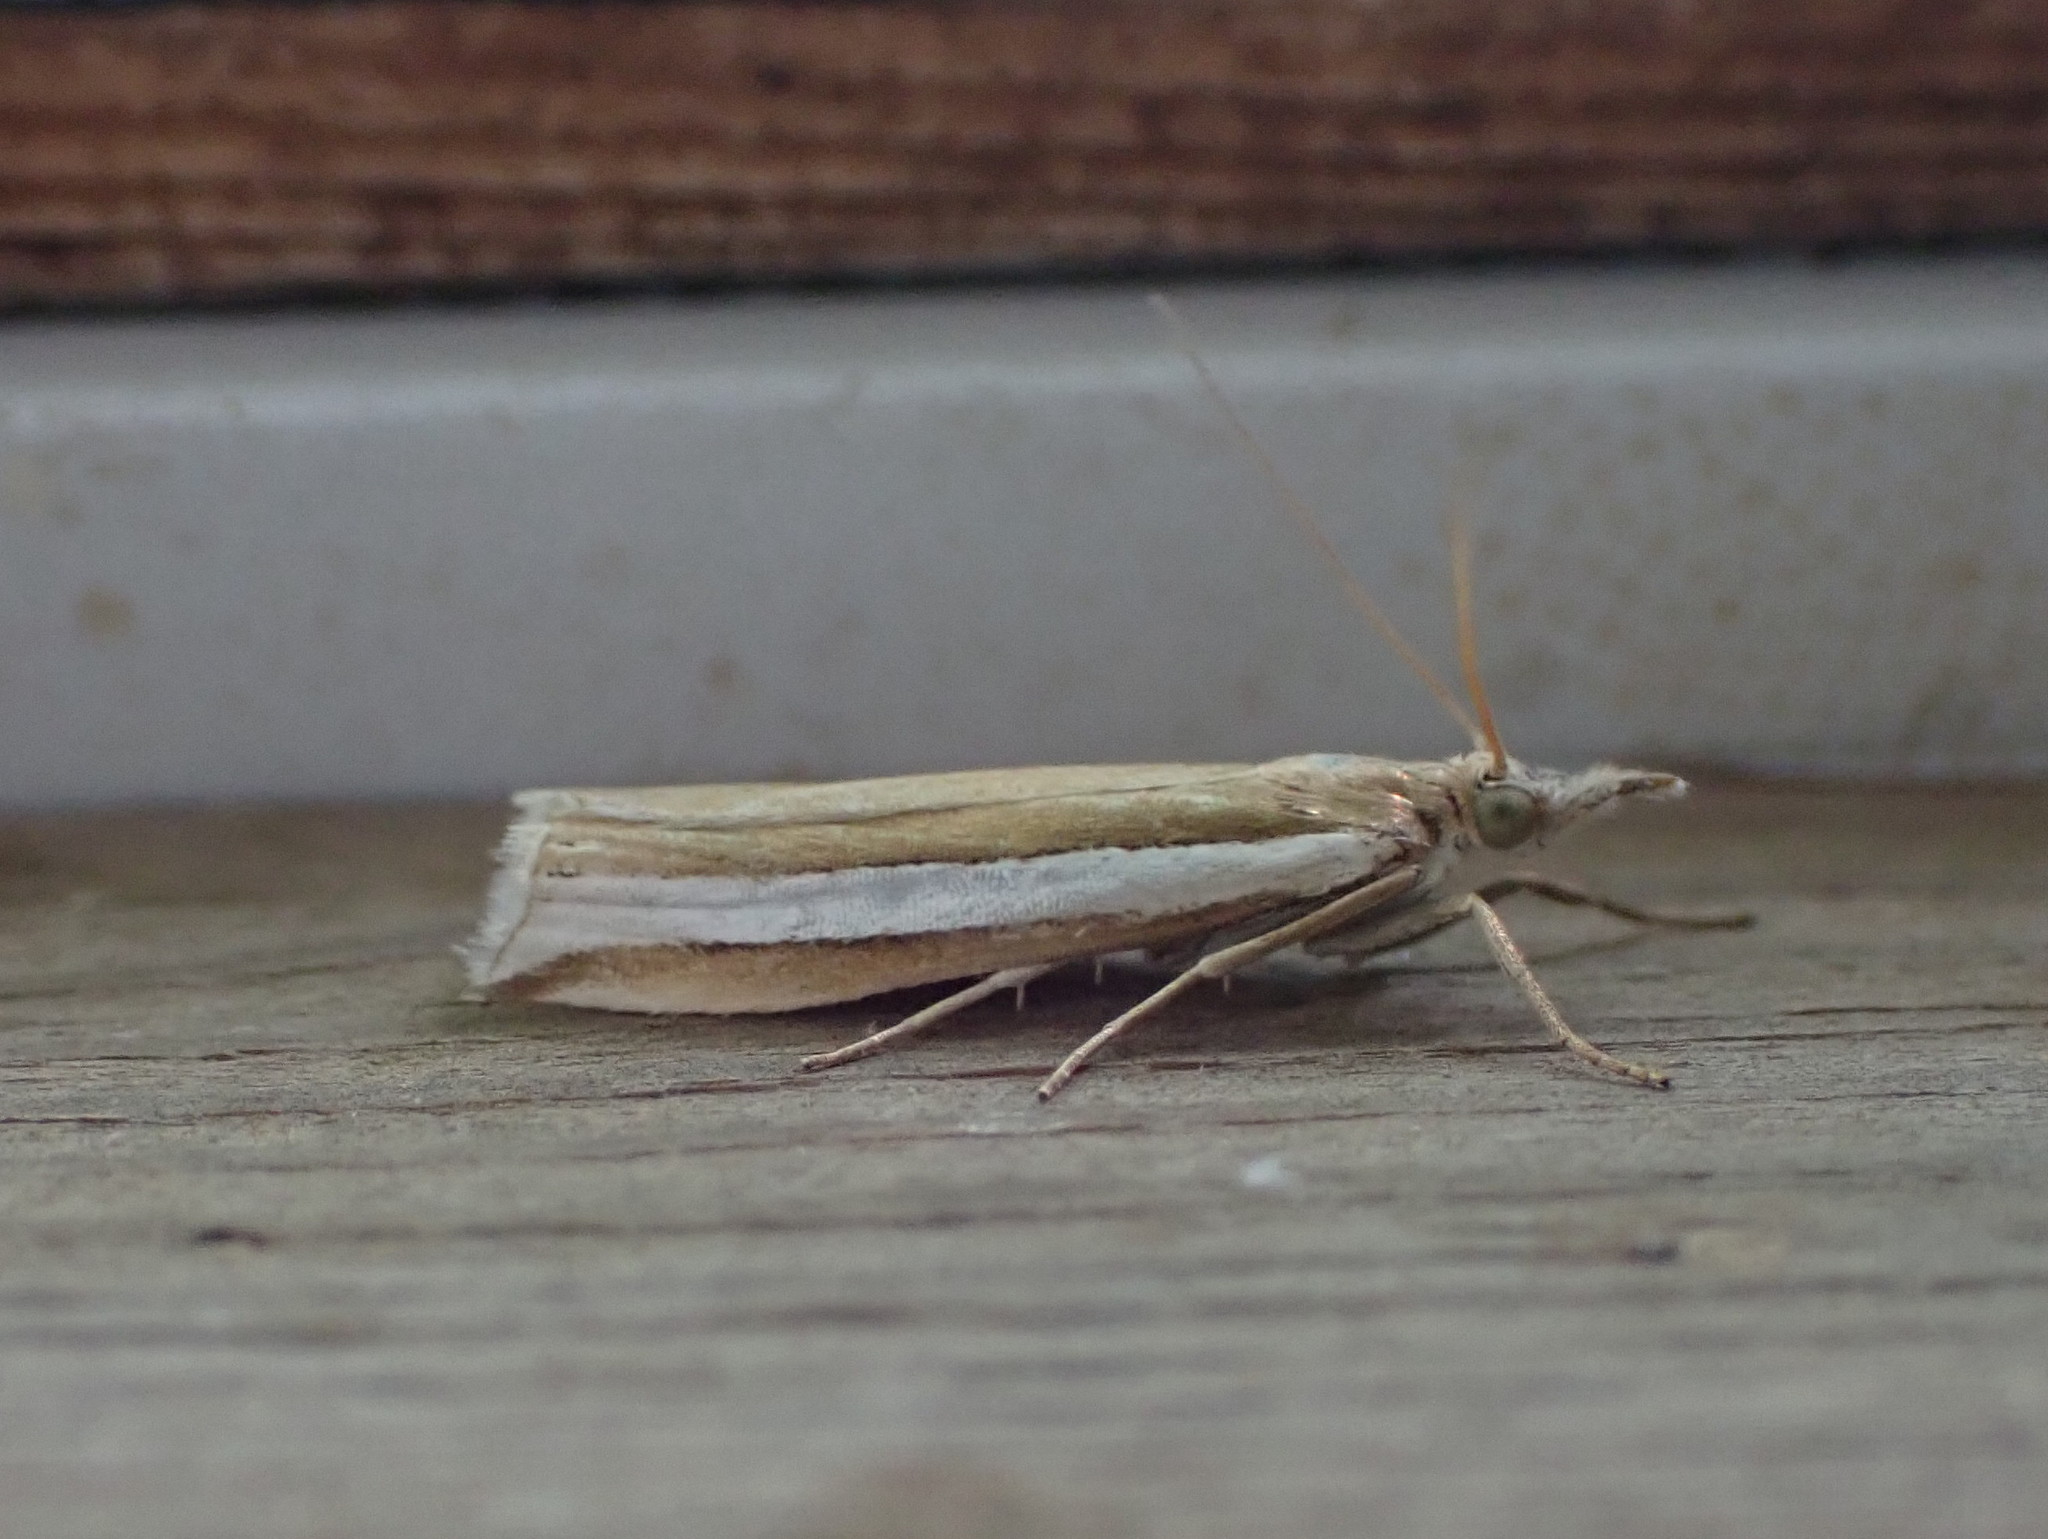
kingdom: Animalia
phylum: Arthropoda
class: Insecta
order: Lepidoptera
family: Crambidae
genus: Crambus
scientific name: Crambus unistriatellus
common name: Wide-stripe grass-veneer moth
